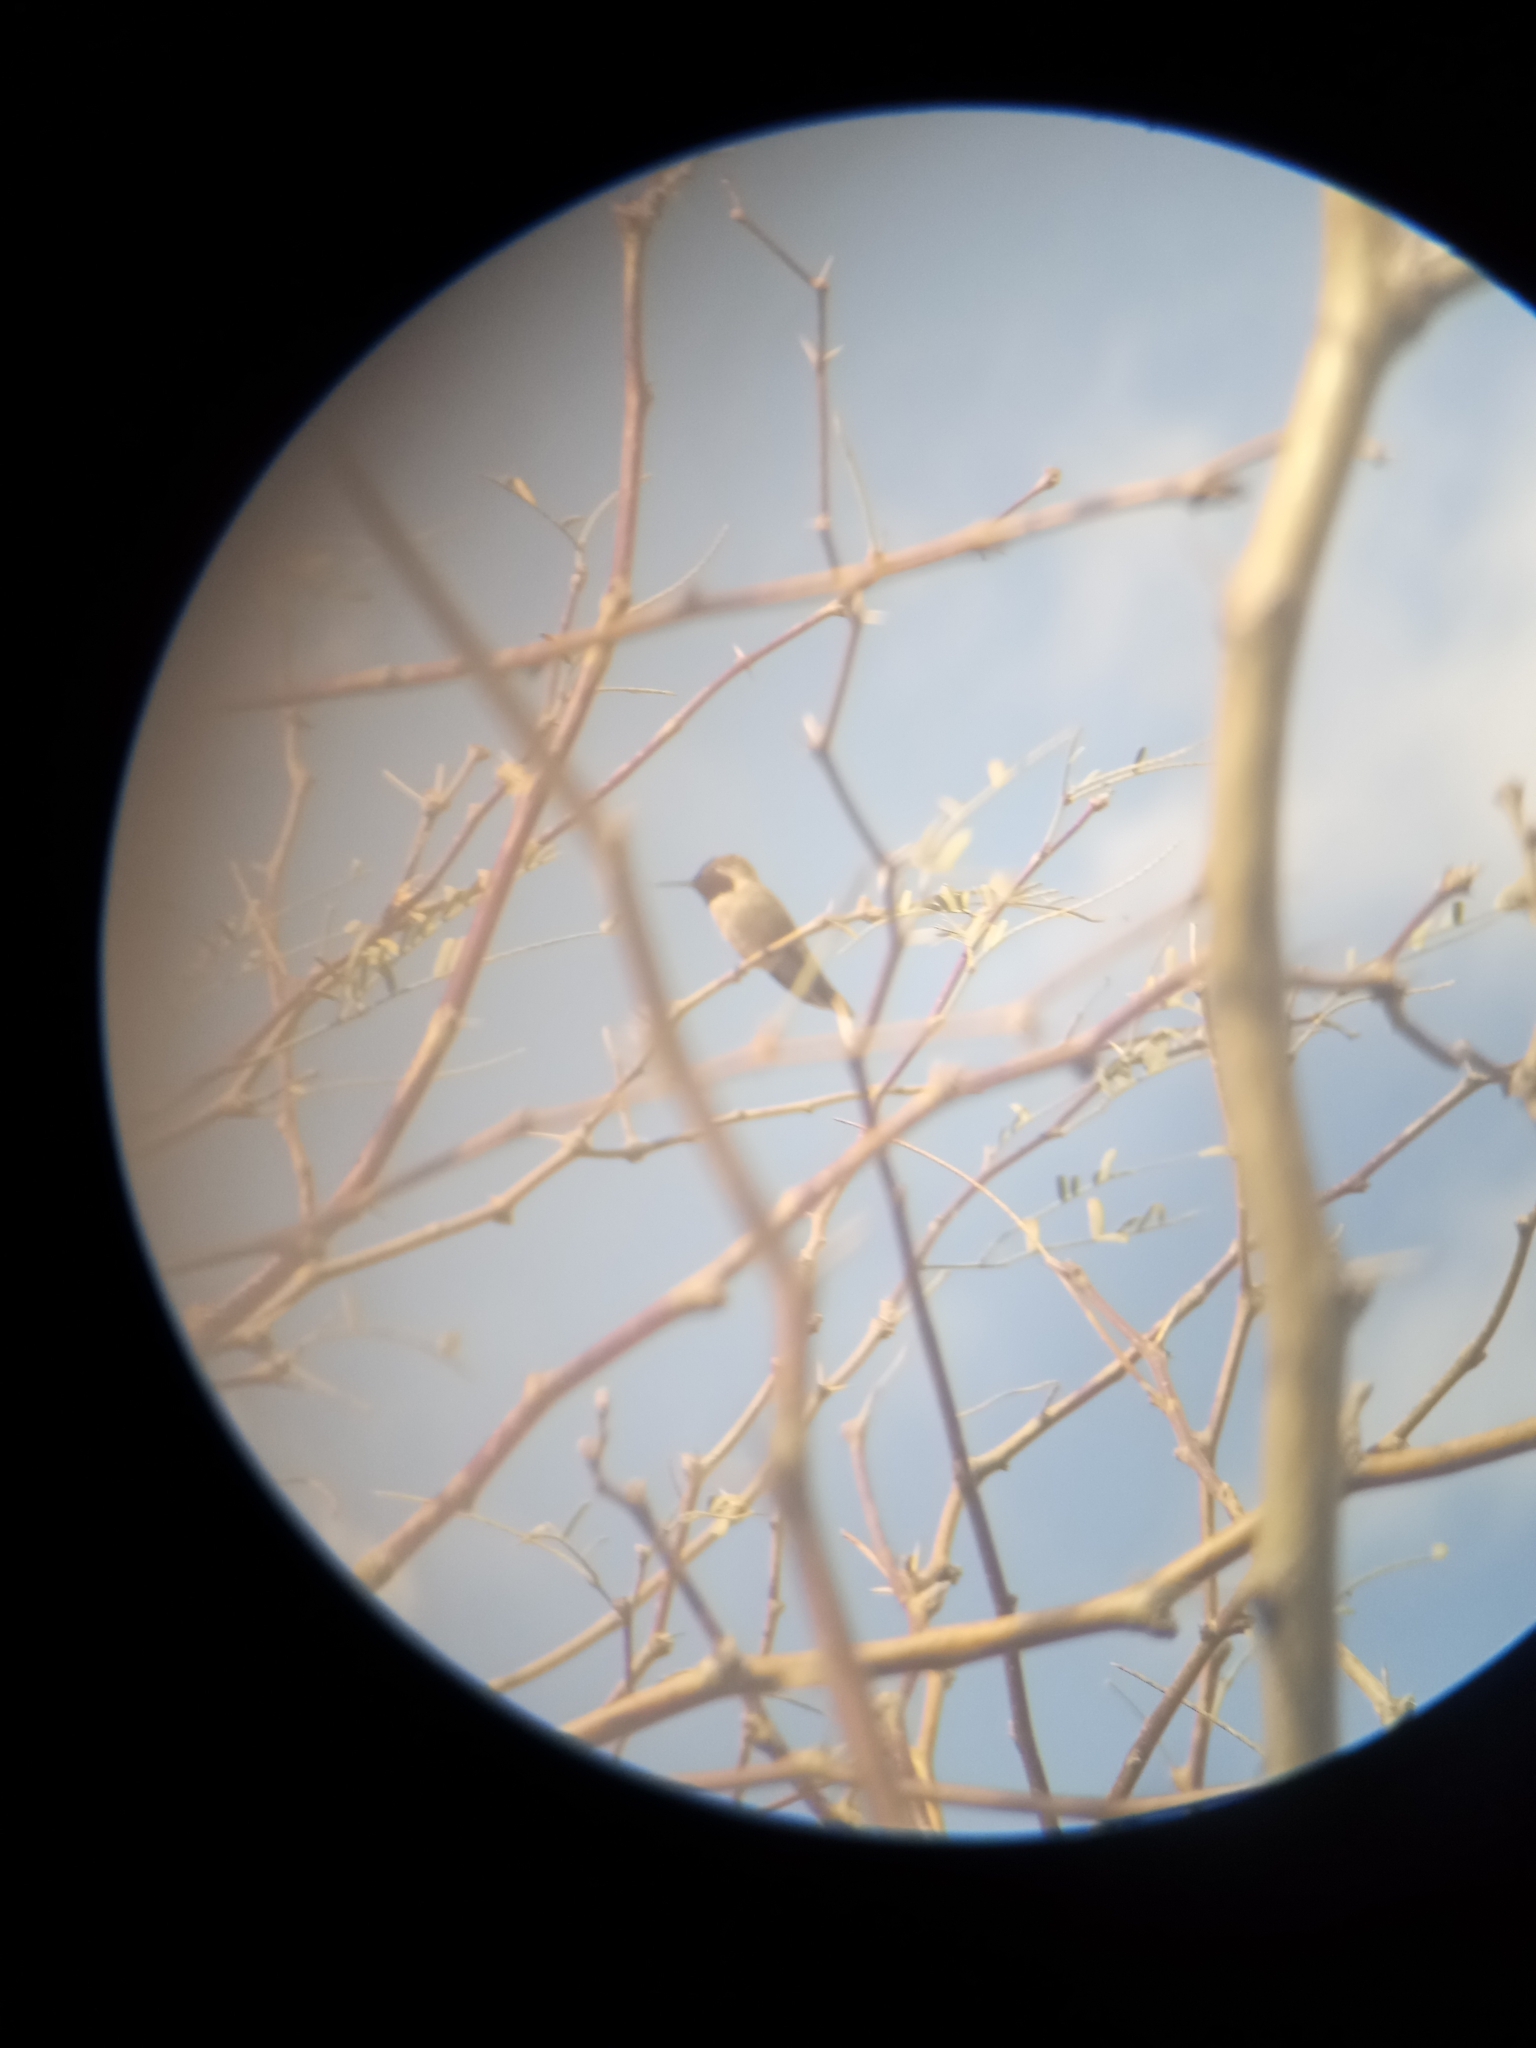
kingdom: Animalia
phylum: Chordata
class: Aves
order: Apodiformes
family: Trochilidae
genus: Calypte
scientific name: Calypte anna
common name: Anna's hummingbird
